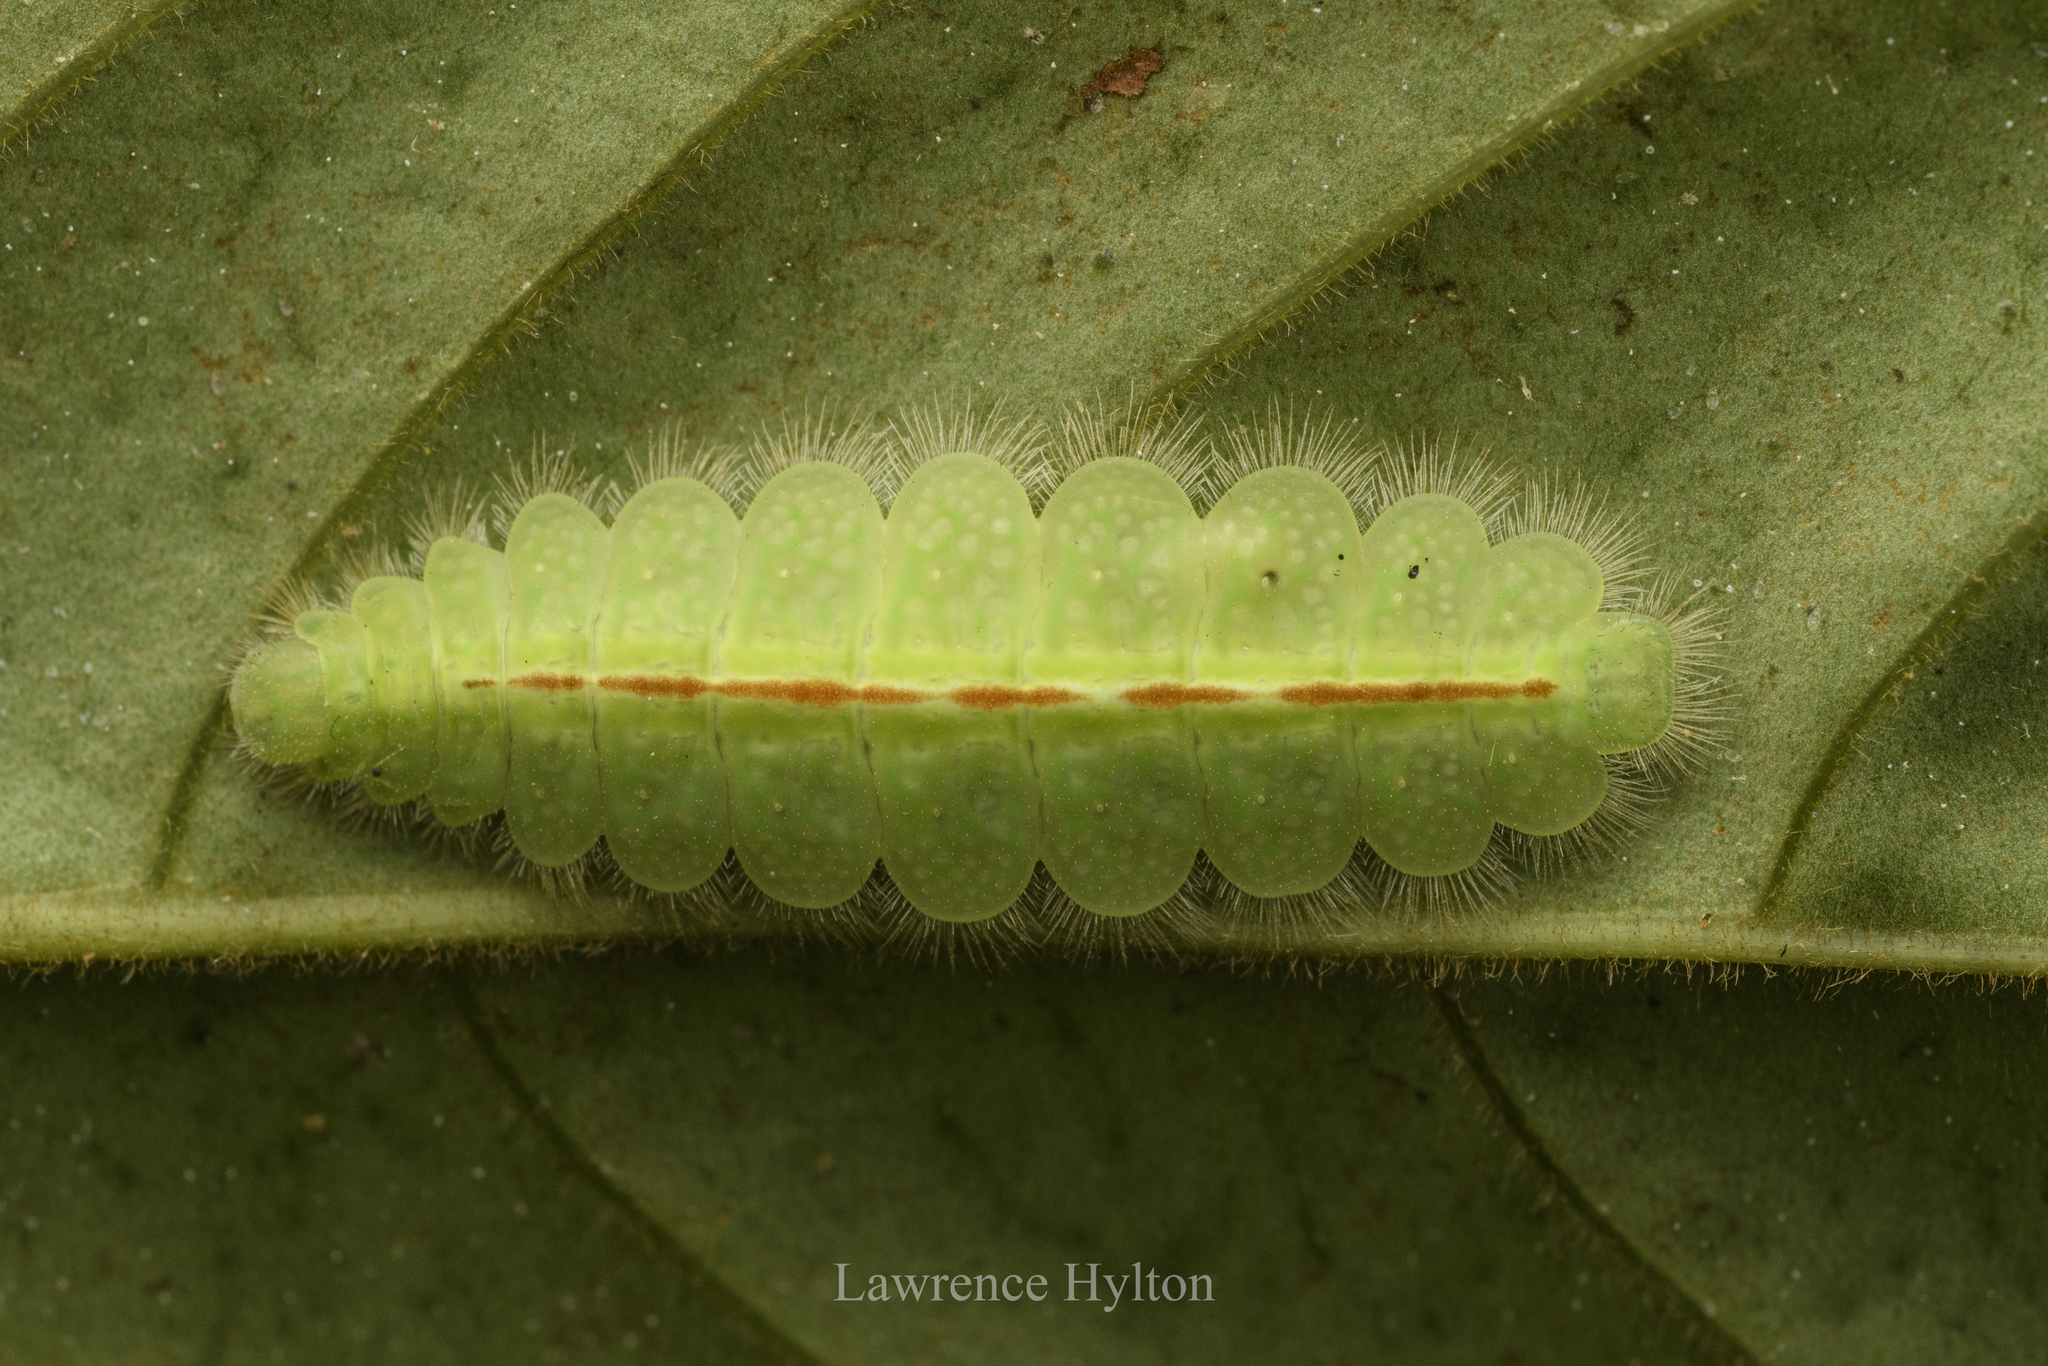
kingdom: Animalia
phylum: Arthropoda
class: Insecta
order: Lepidoptera
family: Riodinidae
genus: Zemeros
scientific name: Zemeros flegyas
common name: Punchinello
